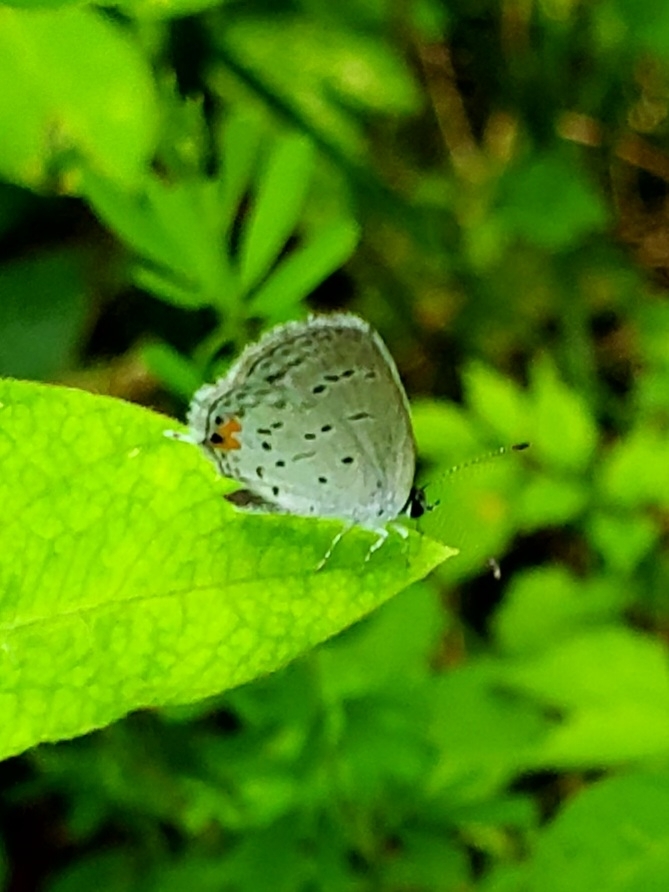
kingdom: Animalia
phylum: Arthropoda
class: Insecta
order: Lepidoptera
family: Lycaenidae
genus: Elkalyce
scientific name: Elkalyce comyntas
